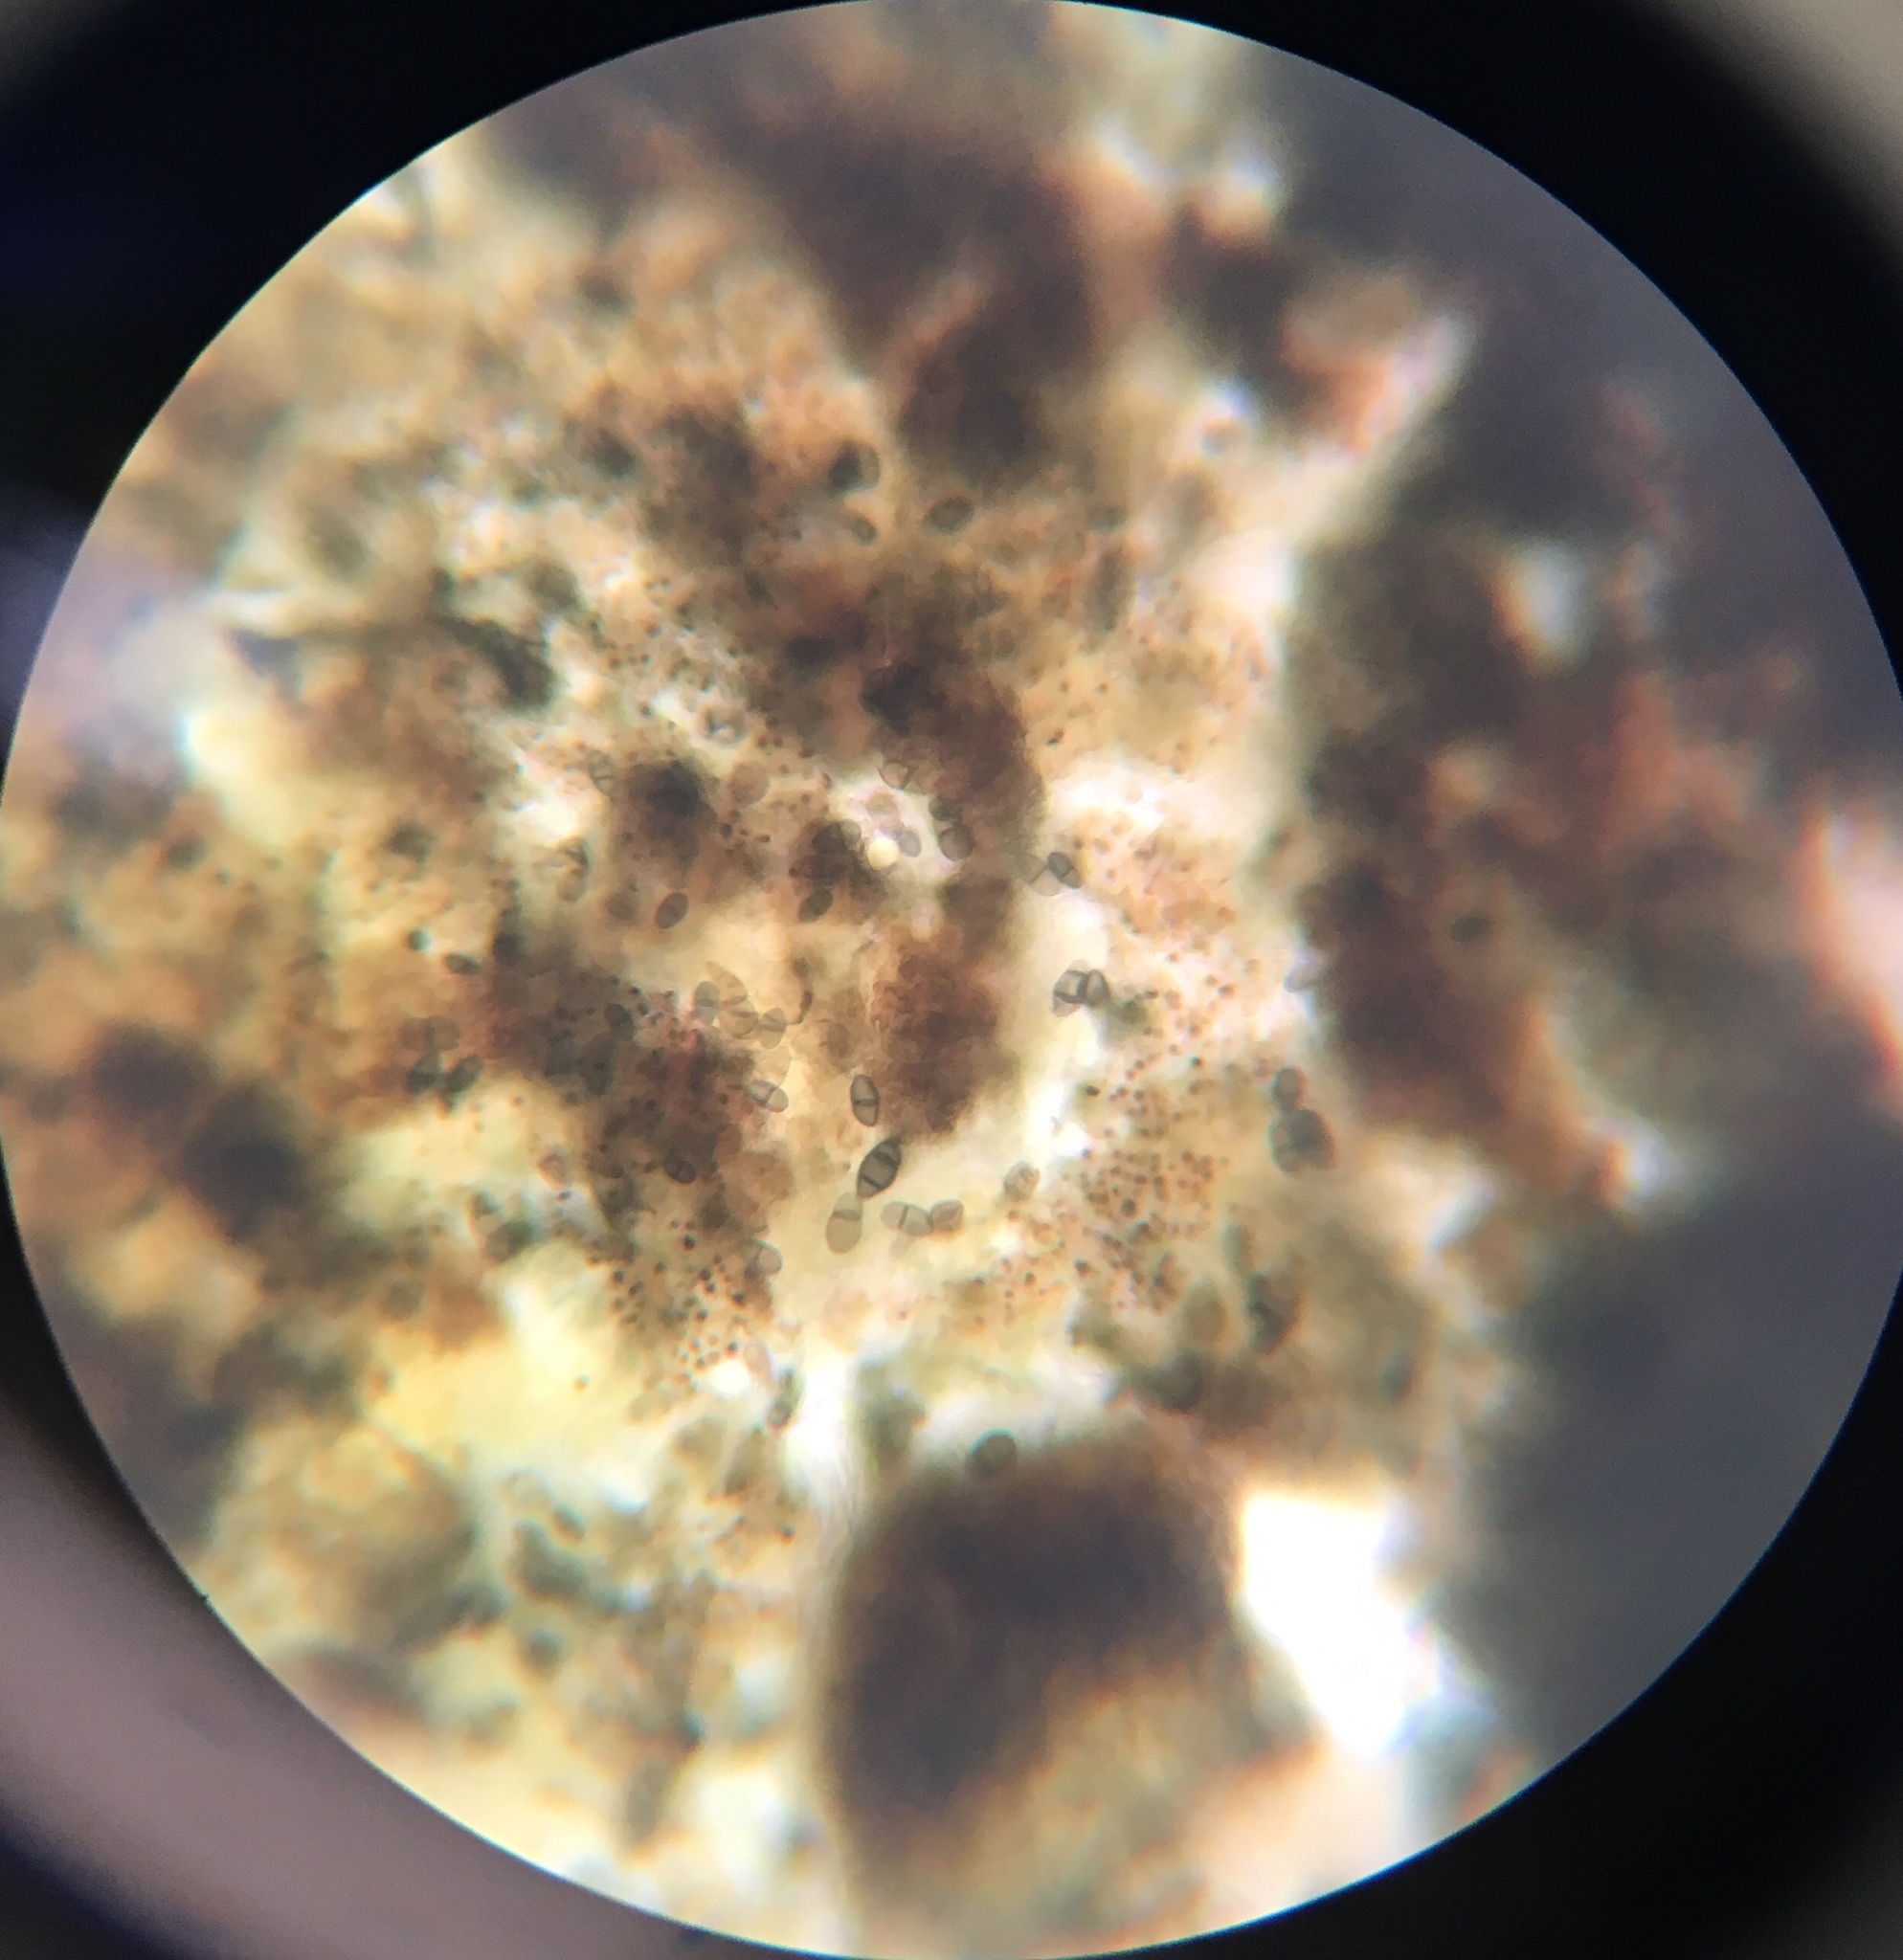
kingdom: Fungi
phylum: Ascomycota
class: Dothideomycetes
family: Rhizodiscinaceae
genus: Rhizodiscina
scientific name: Rhizodiscina lignyota
